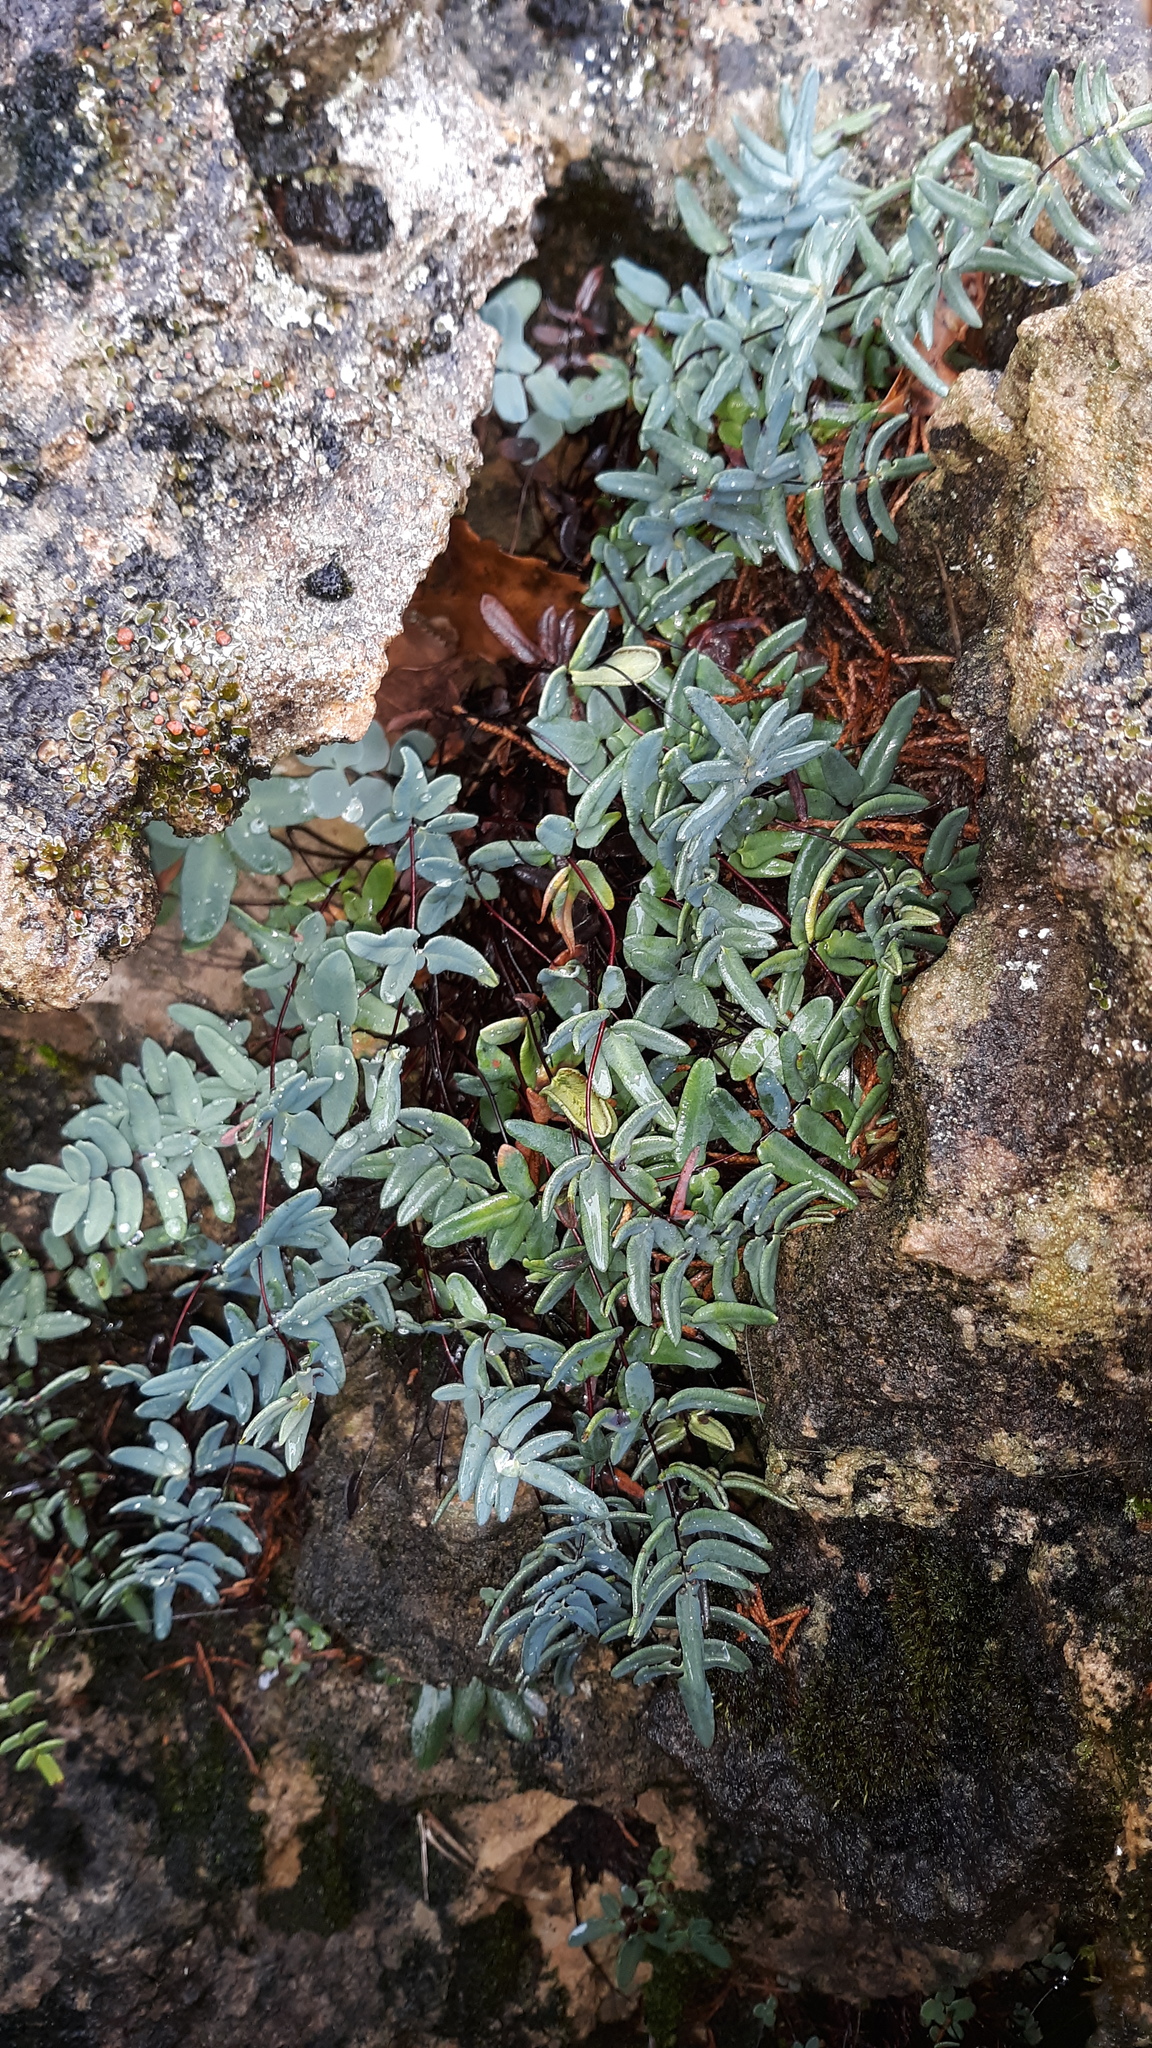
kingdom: Plantae
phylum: Tracheophyta
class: Polypodiopsida
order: Polypodiales
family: Pteridaceae
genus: Pellaea
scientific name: Pellaea glabella
